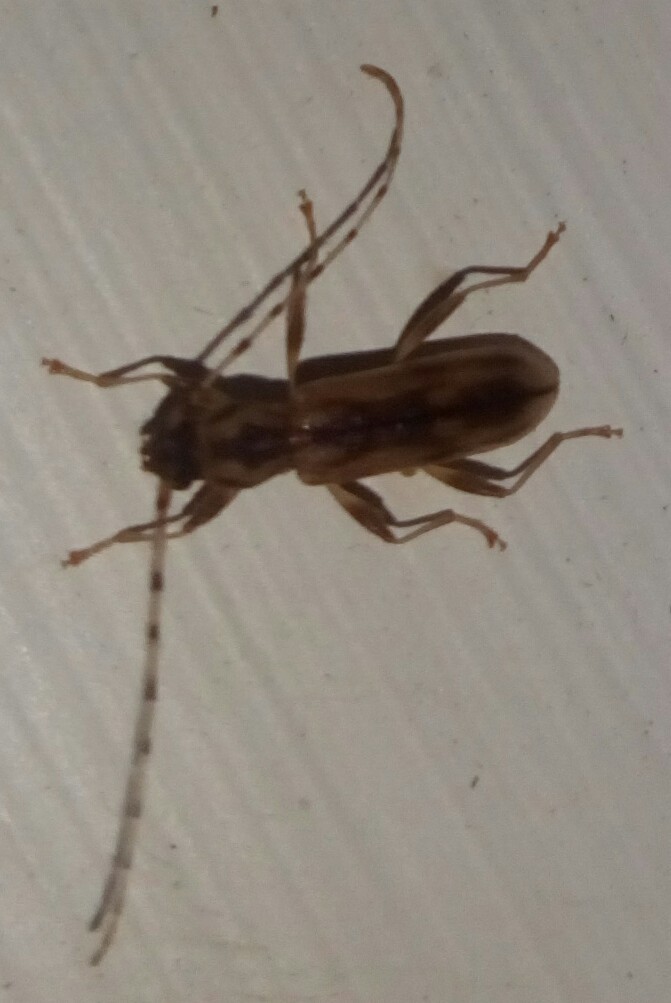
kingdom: Animalia
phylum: Arthropoda
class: Insecta
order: Coleoptera
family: Cerambycidae
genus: Curius
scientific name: Curius dentatus
